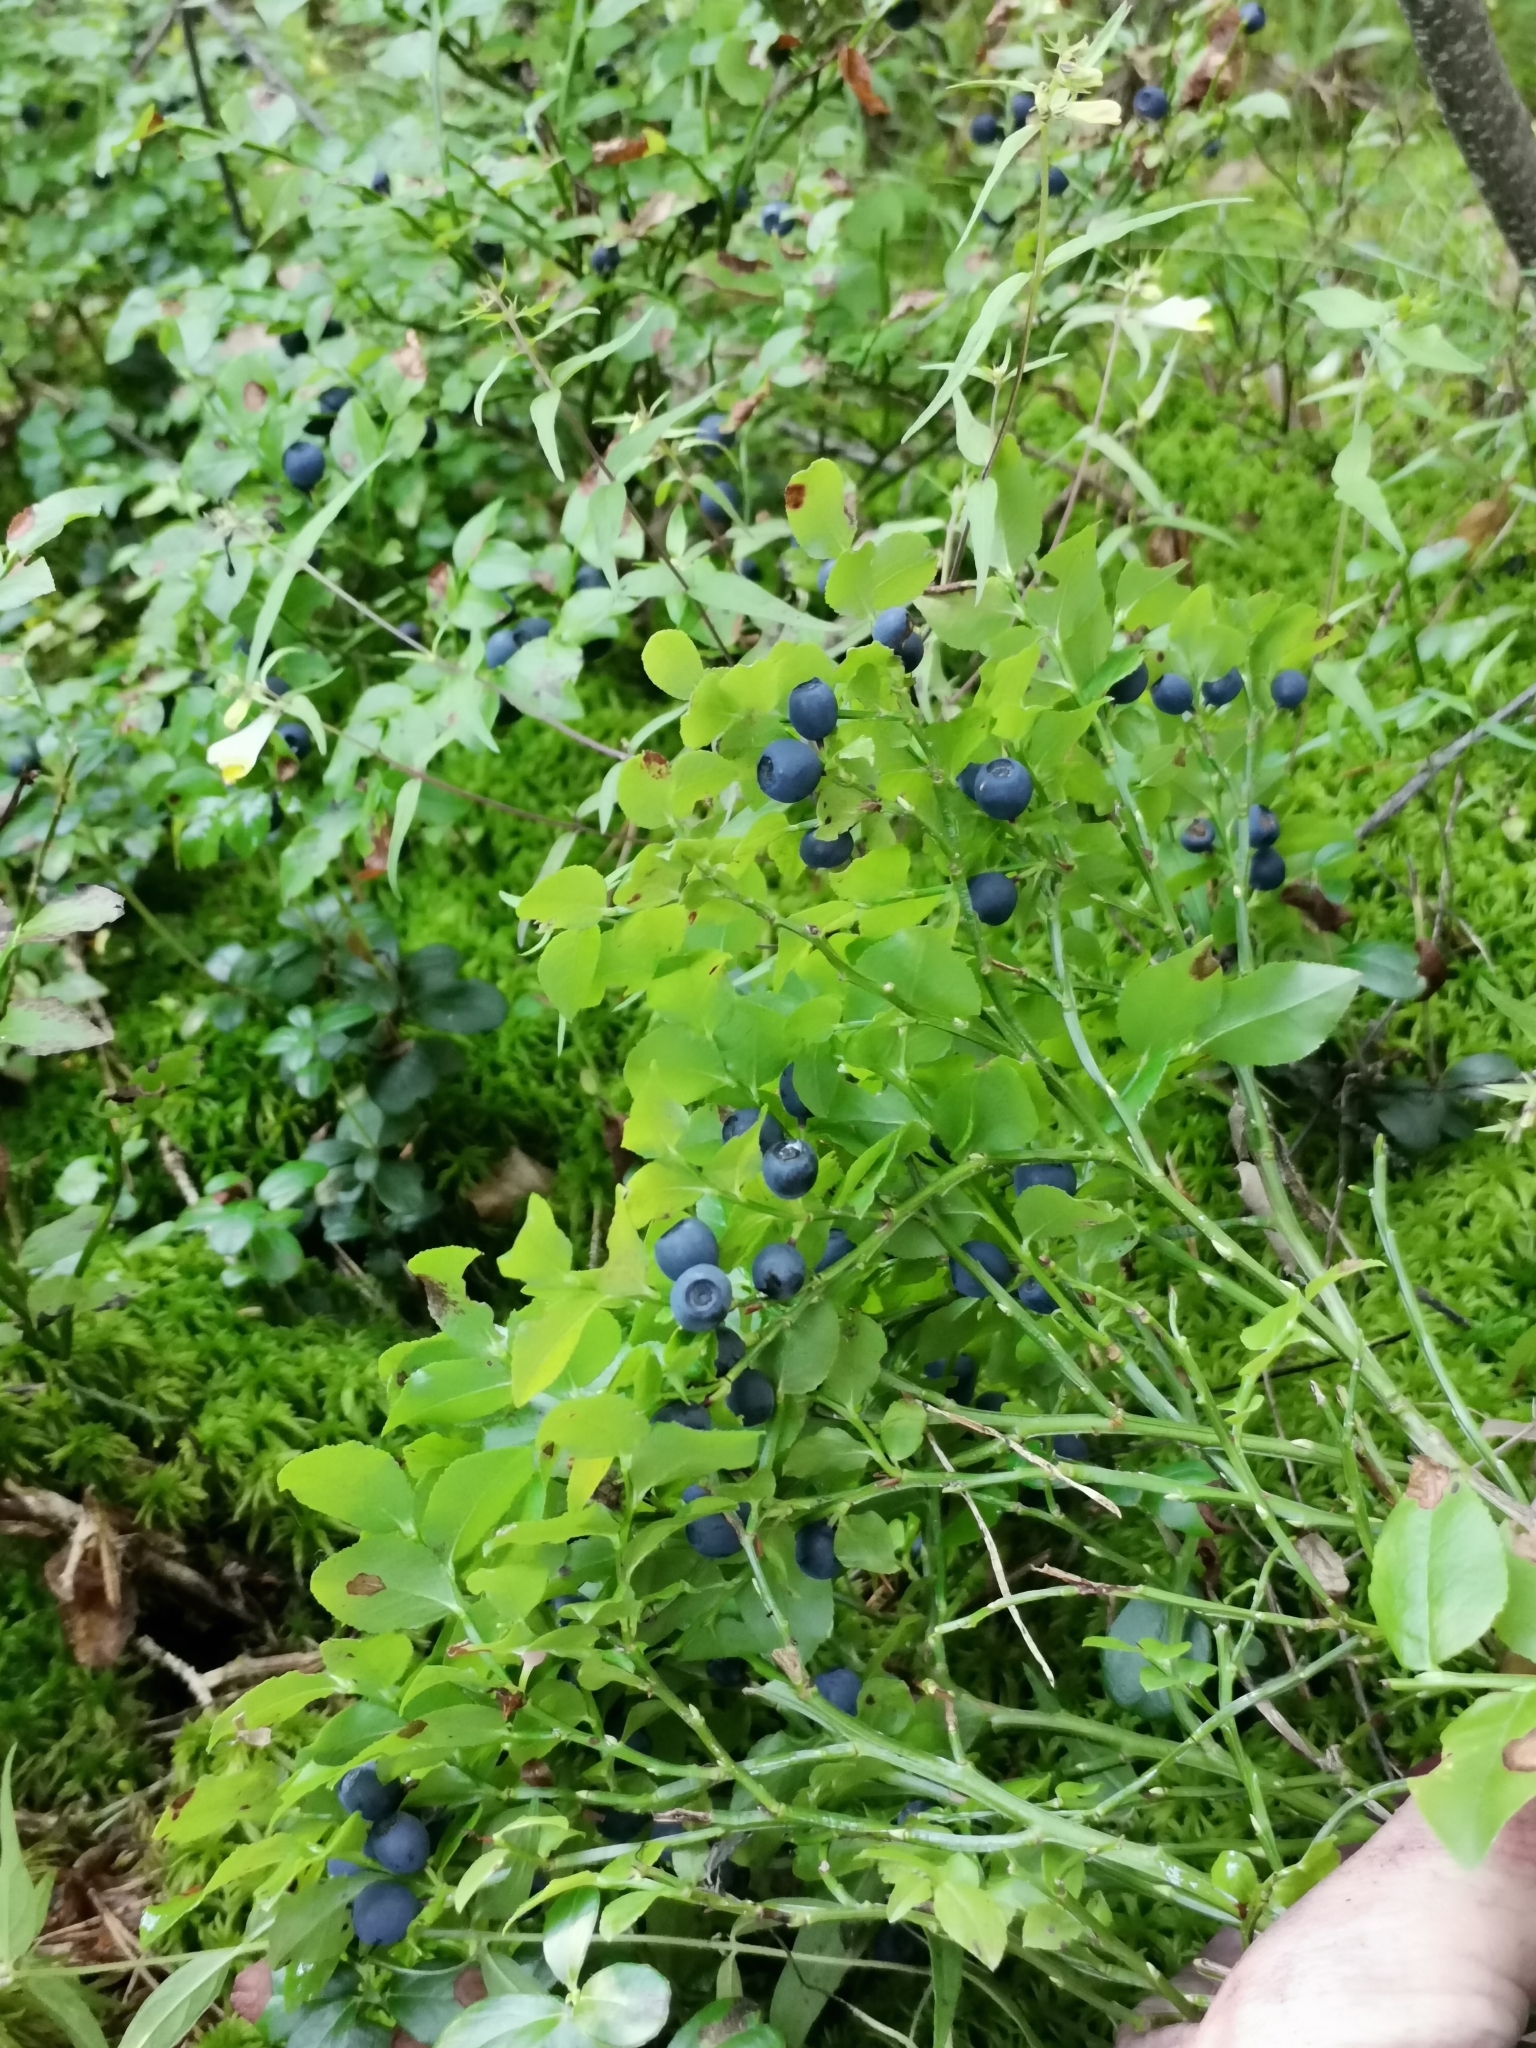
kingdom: Plantae
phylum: Tracheophyta
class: Magnoliopsida
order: Ericales
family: Ericaceae
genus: Vaccinium
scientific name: Vaccinium myrtillus
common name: Bilberry
